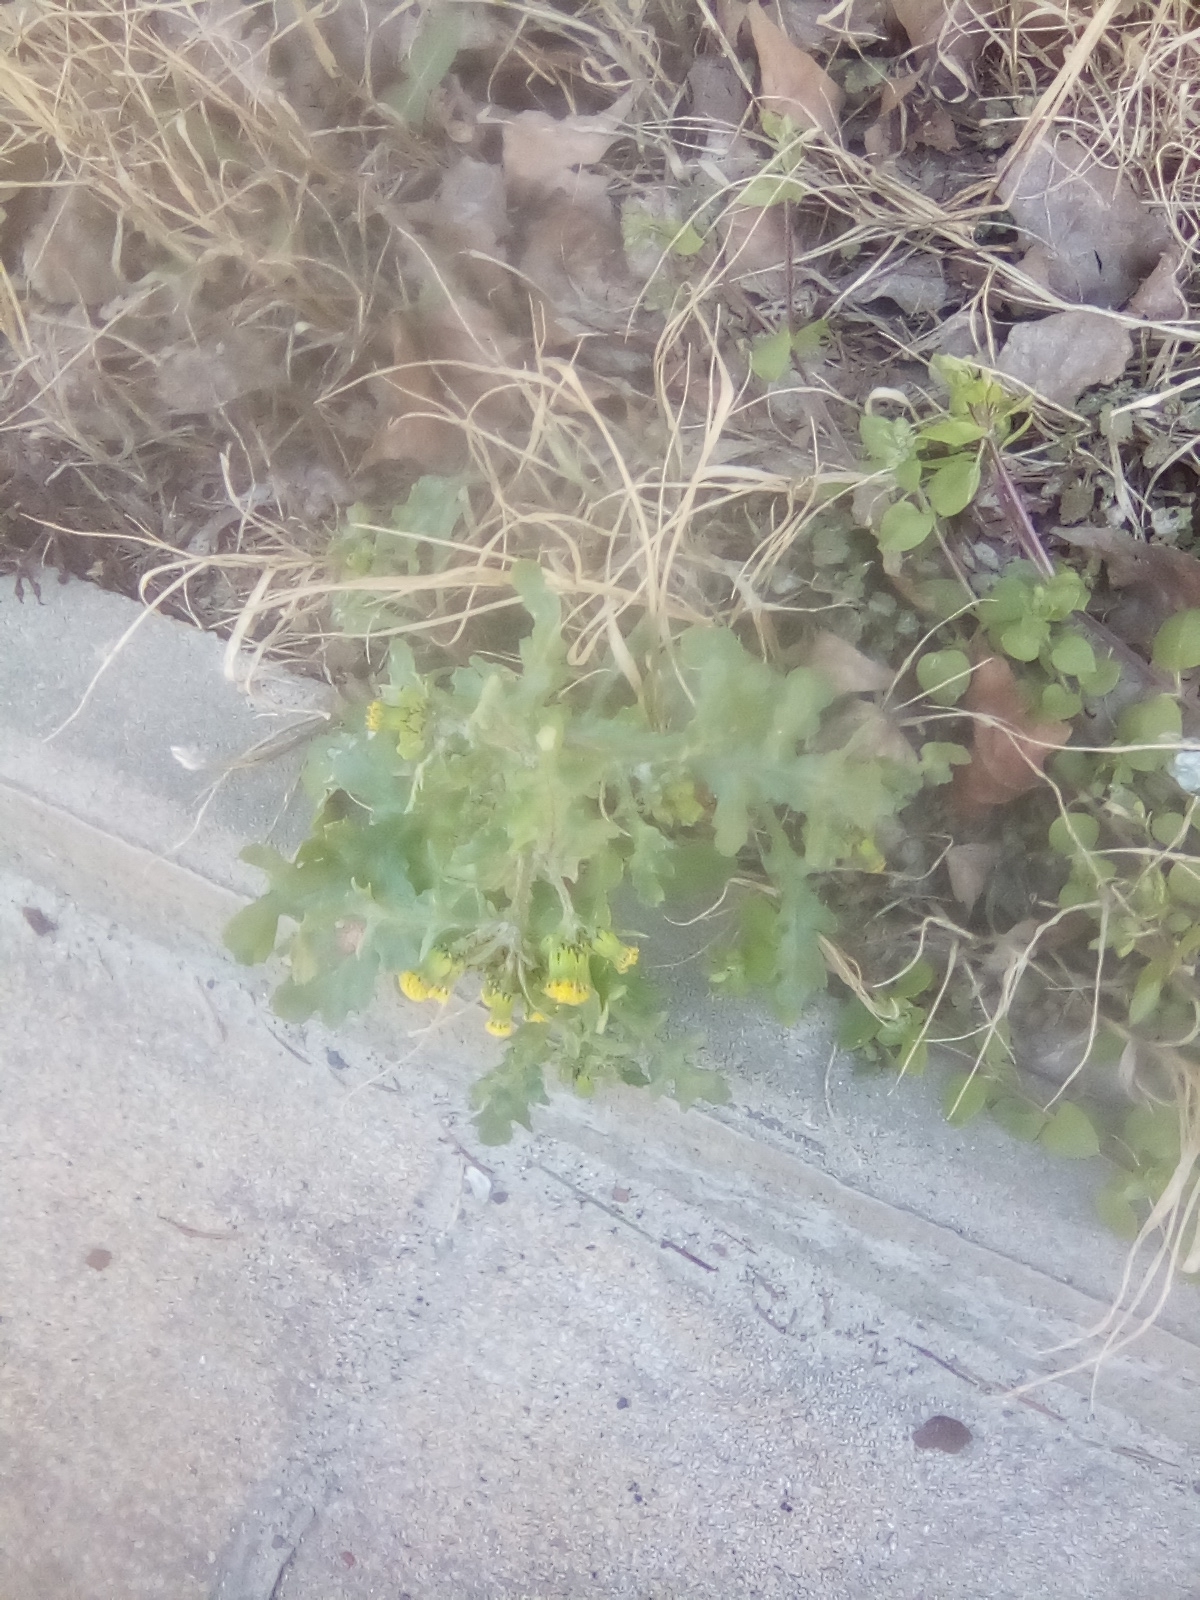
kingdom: Plantae
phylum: Tracheophyta
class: Magnoliopsida
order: Asterales
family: Asteraceae
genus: Senecio
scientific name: Senecio vulgaris
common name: Old-man-in-the-spring
